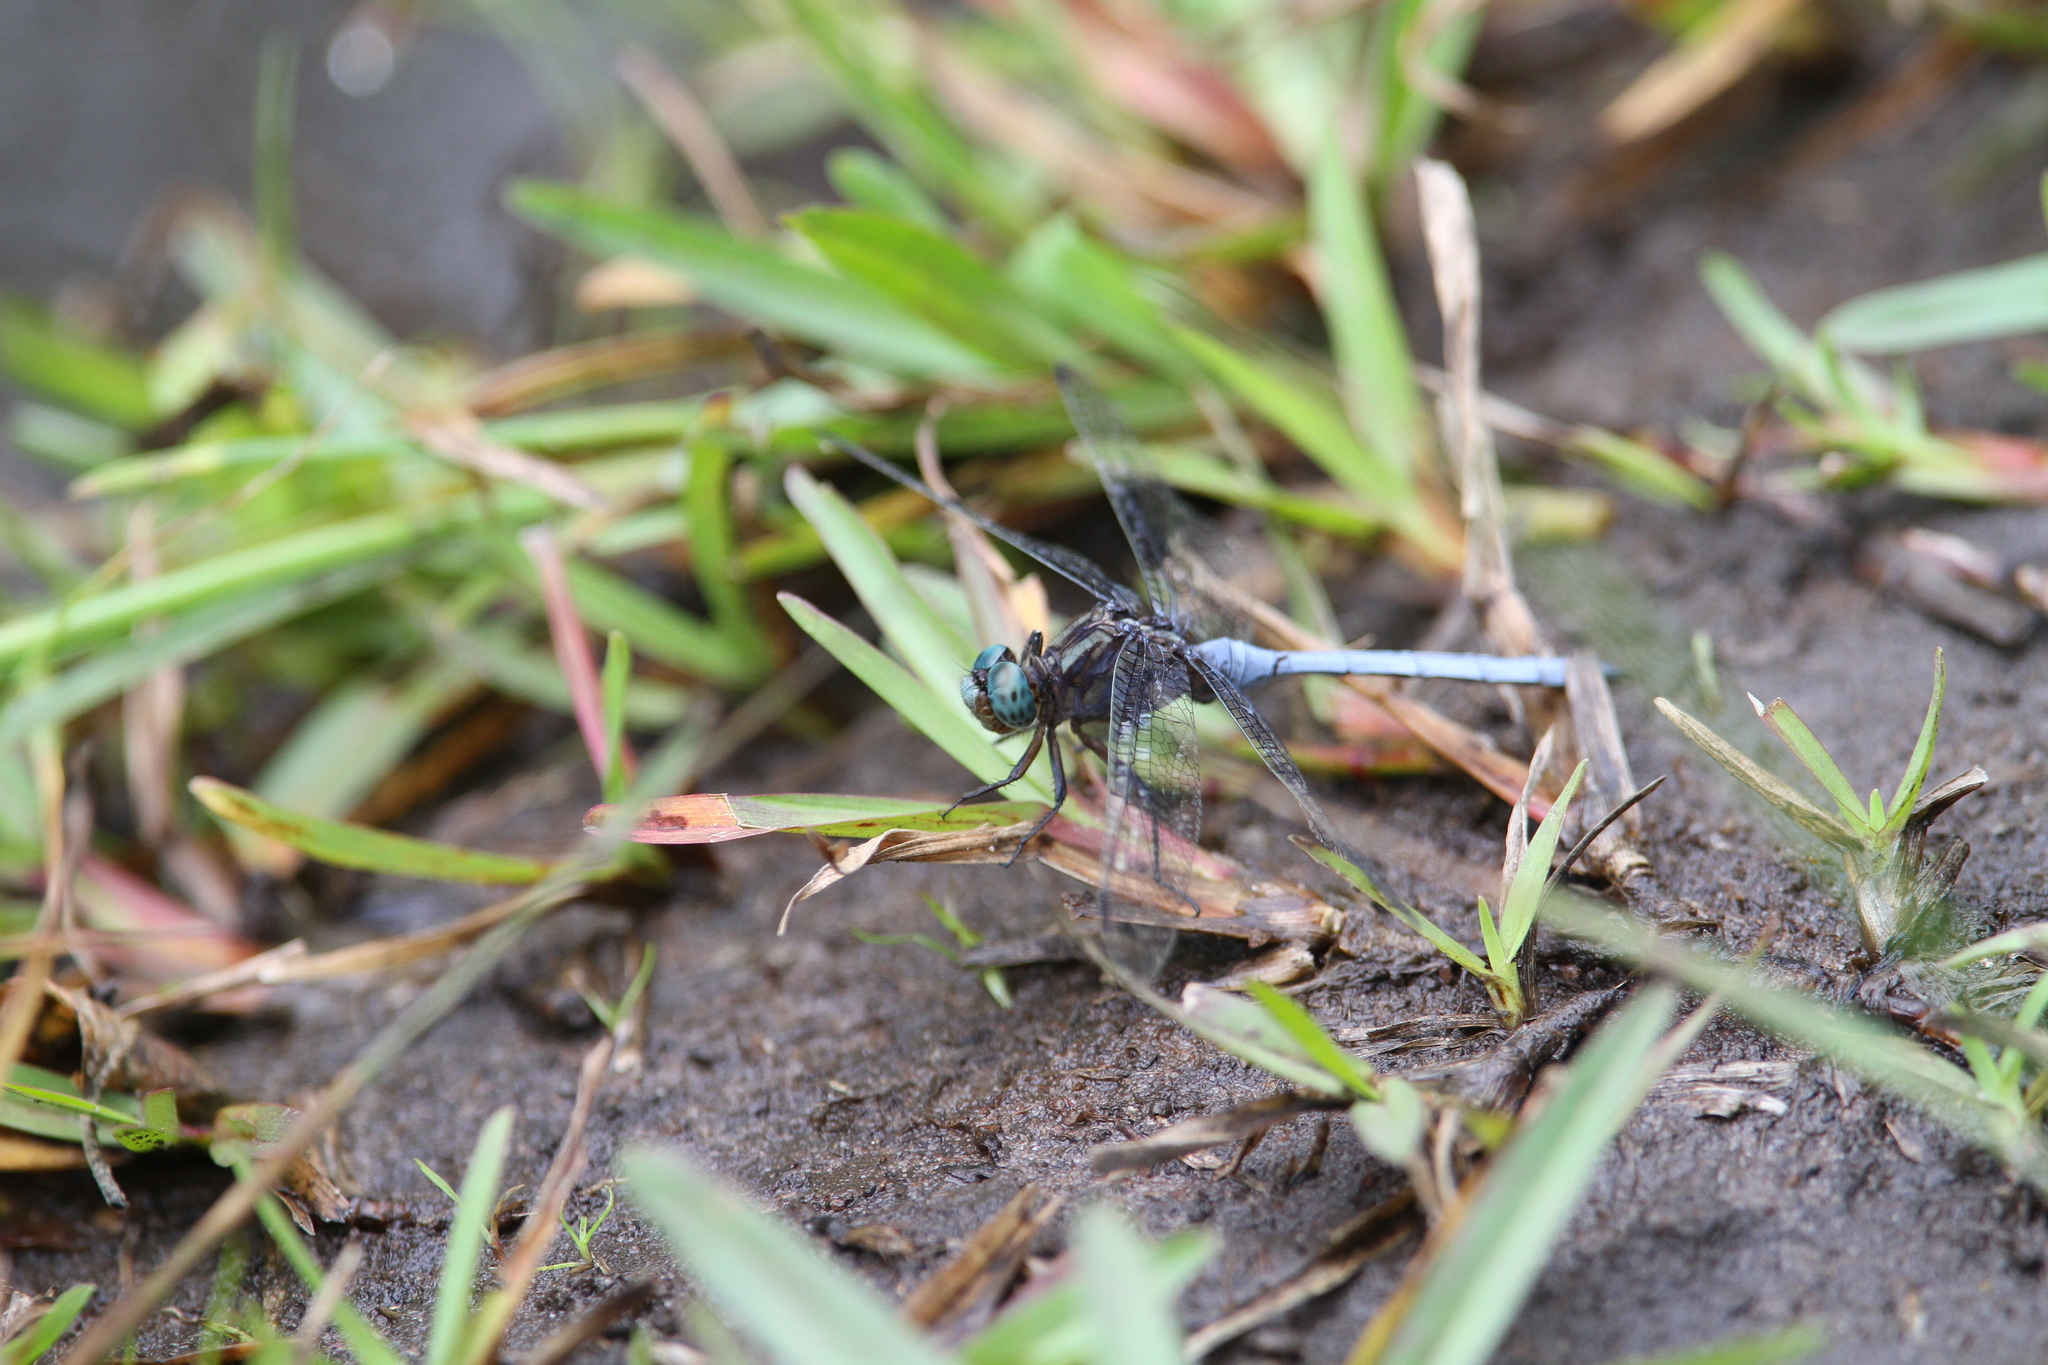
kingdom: Animalia
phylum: Arthropoda
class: Insecta
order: Odonata
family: Libellulidae
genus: Orthetrum
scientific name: Orthetrum julia
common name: Julia skimmer
